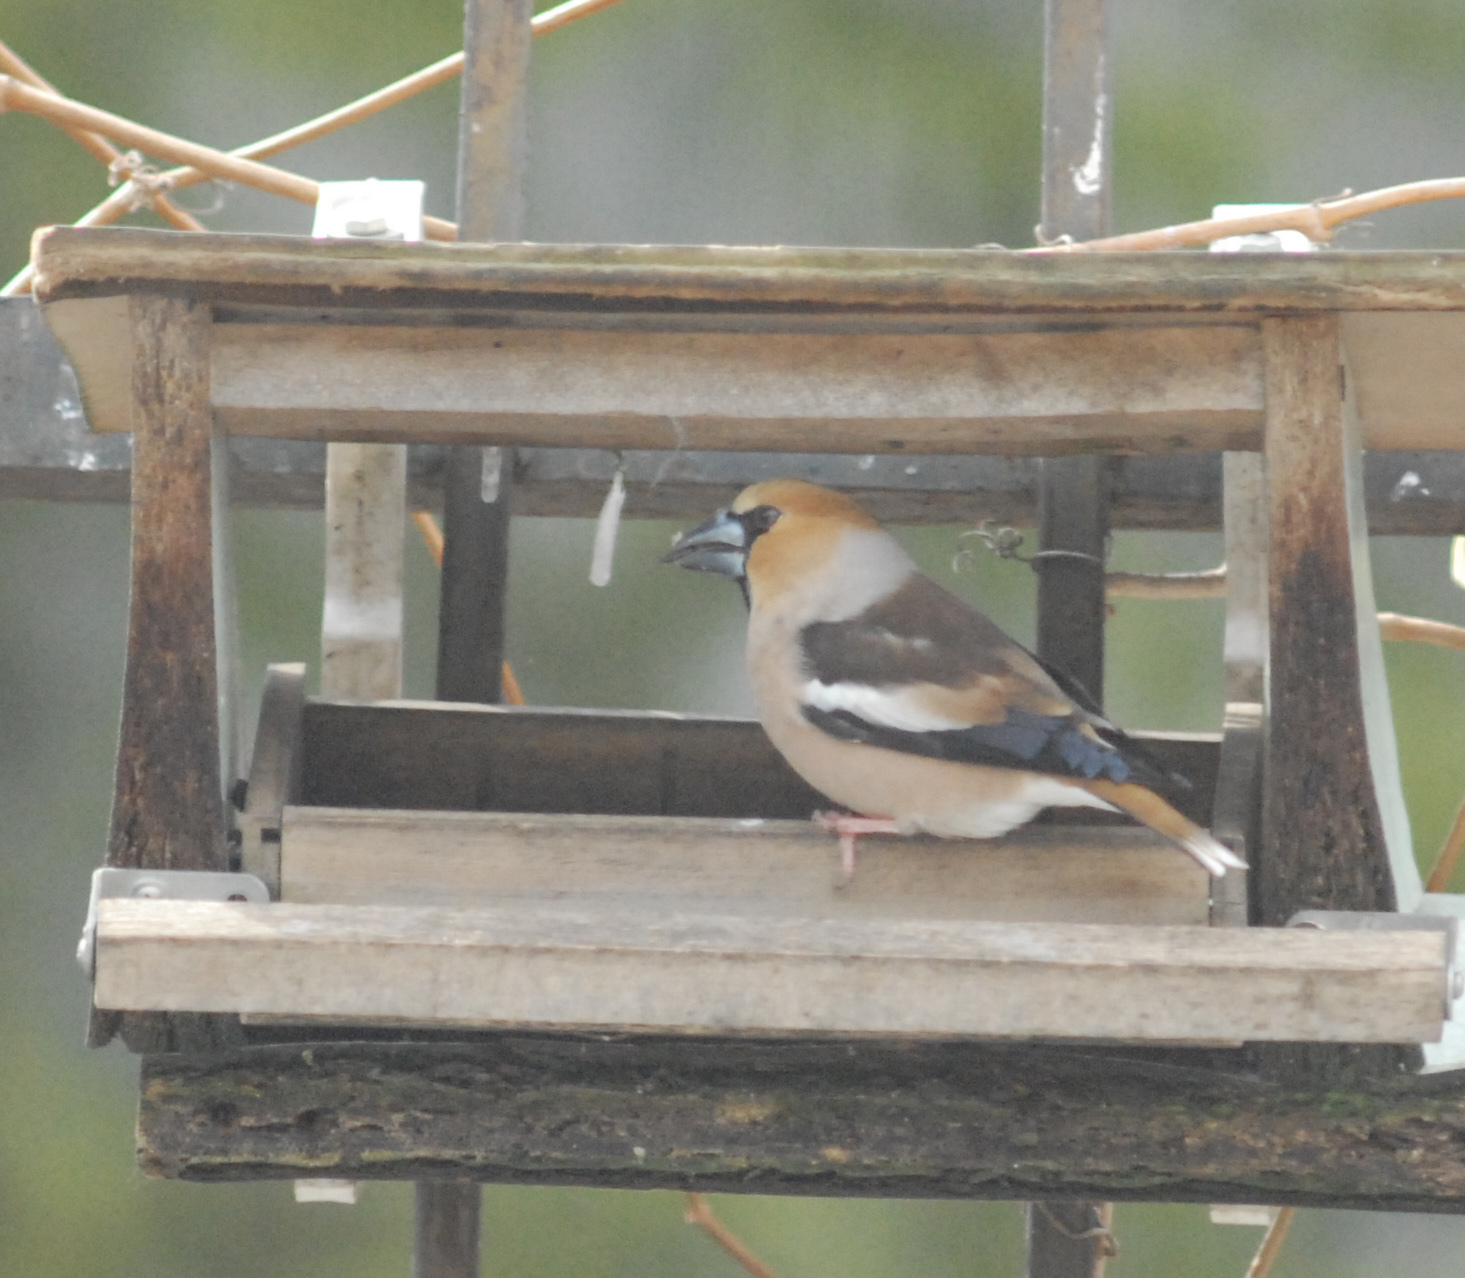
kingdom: Animalia
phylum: Chordata
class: Aves
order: Passeriformes
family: Fringillidae
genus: Coccothraustes
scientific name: Coccothraustes coccothraustes
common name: Hawfinch
